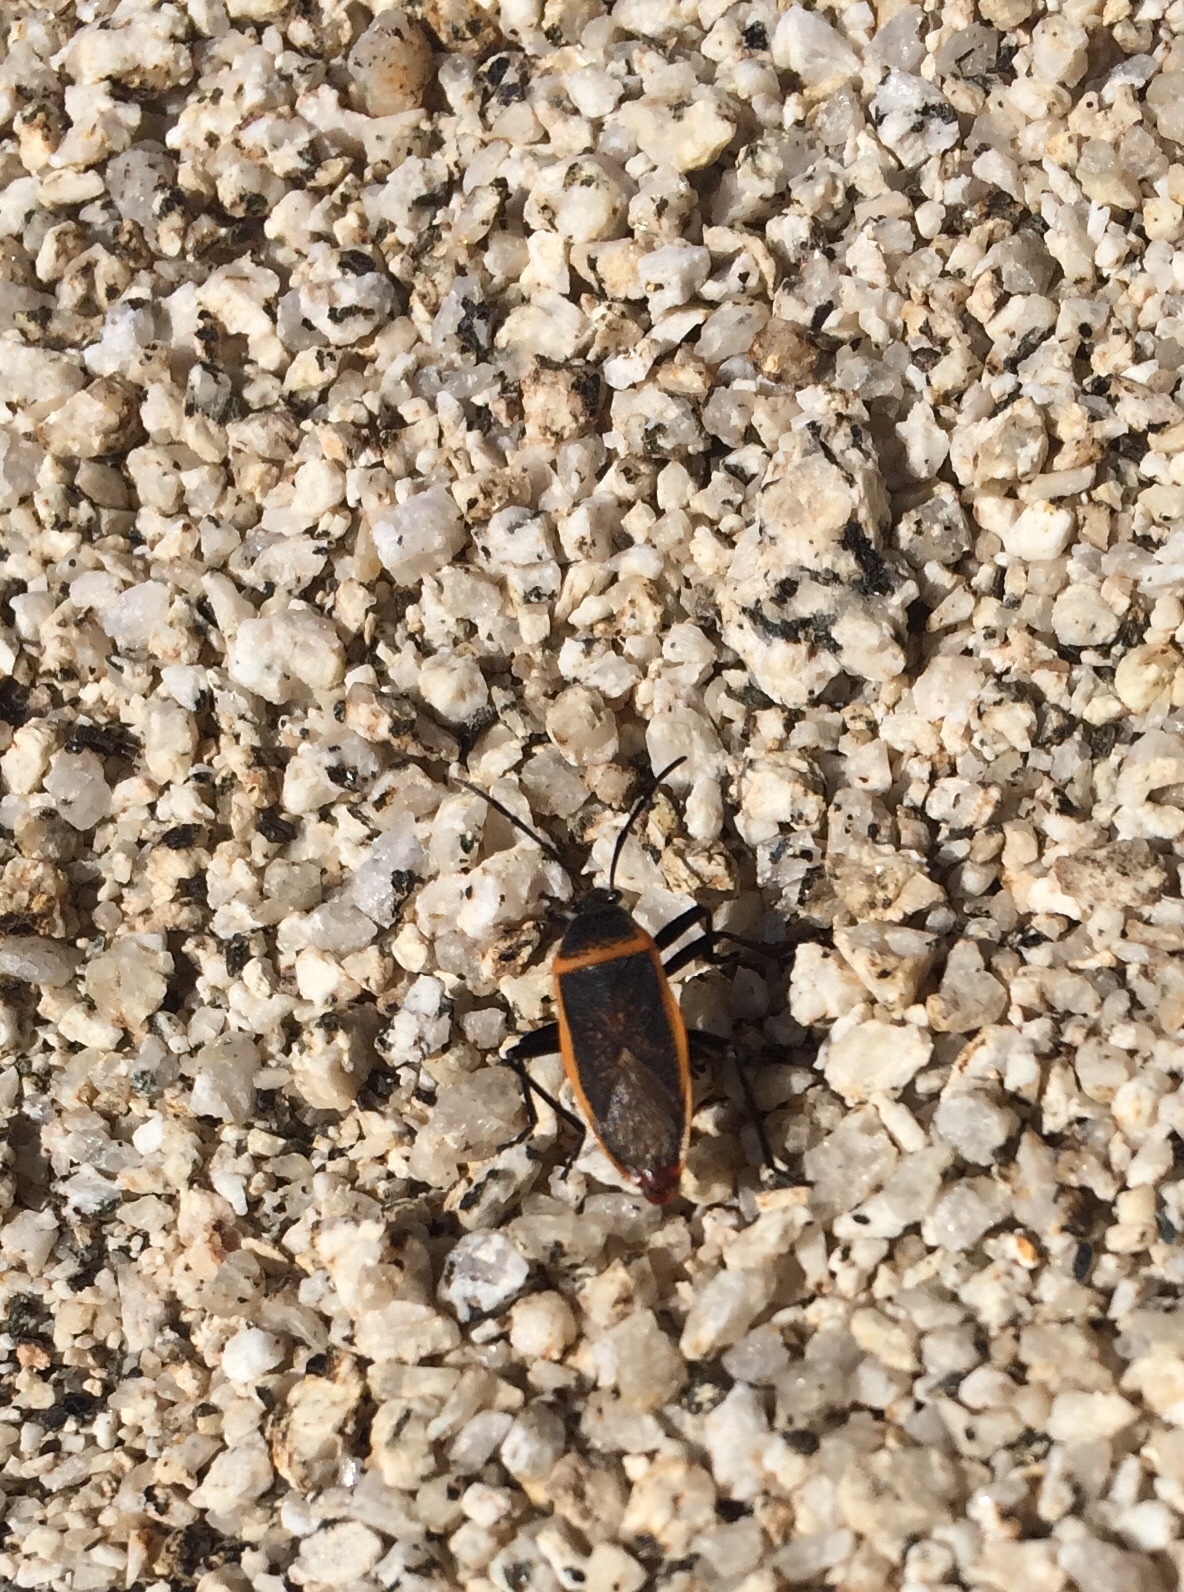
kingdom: Animalia
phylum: Arthropoda
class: Insecta
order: Hemiptera
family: Largidae
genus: Largus
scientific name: Largus californicus
